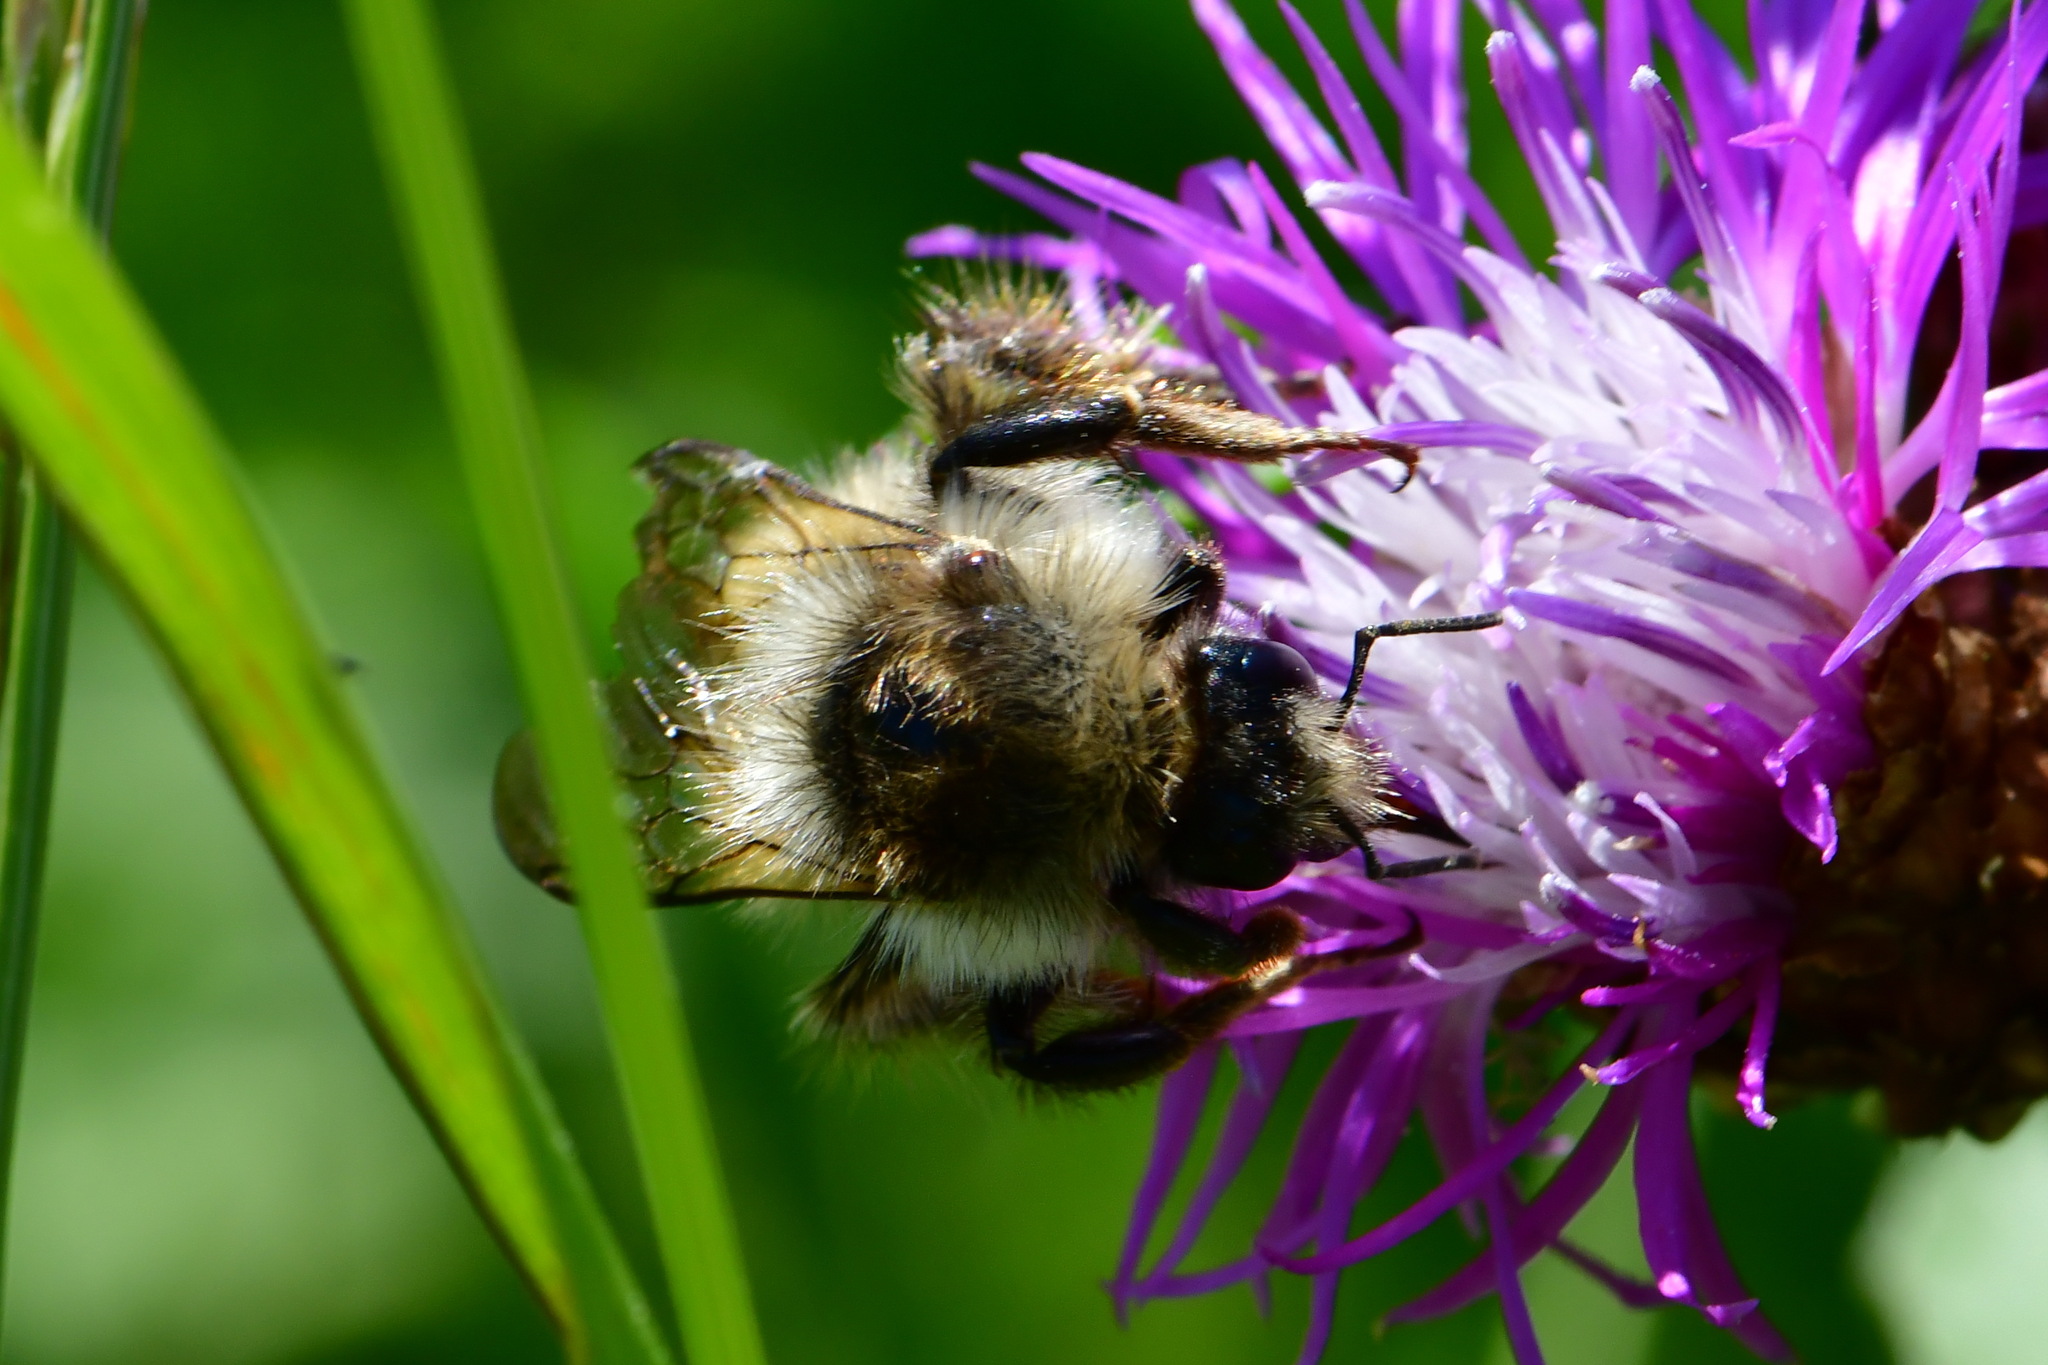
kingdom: Animalia
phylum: Arthropoda
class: Insecta
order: Hymenoptera
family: Apidae
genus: Bombus
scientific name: Bombus veteranus
